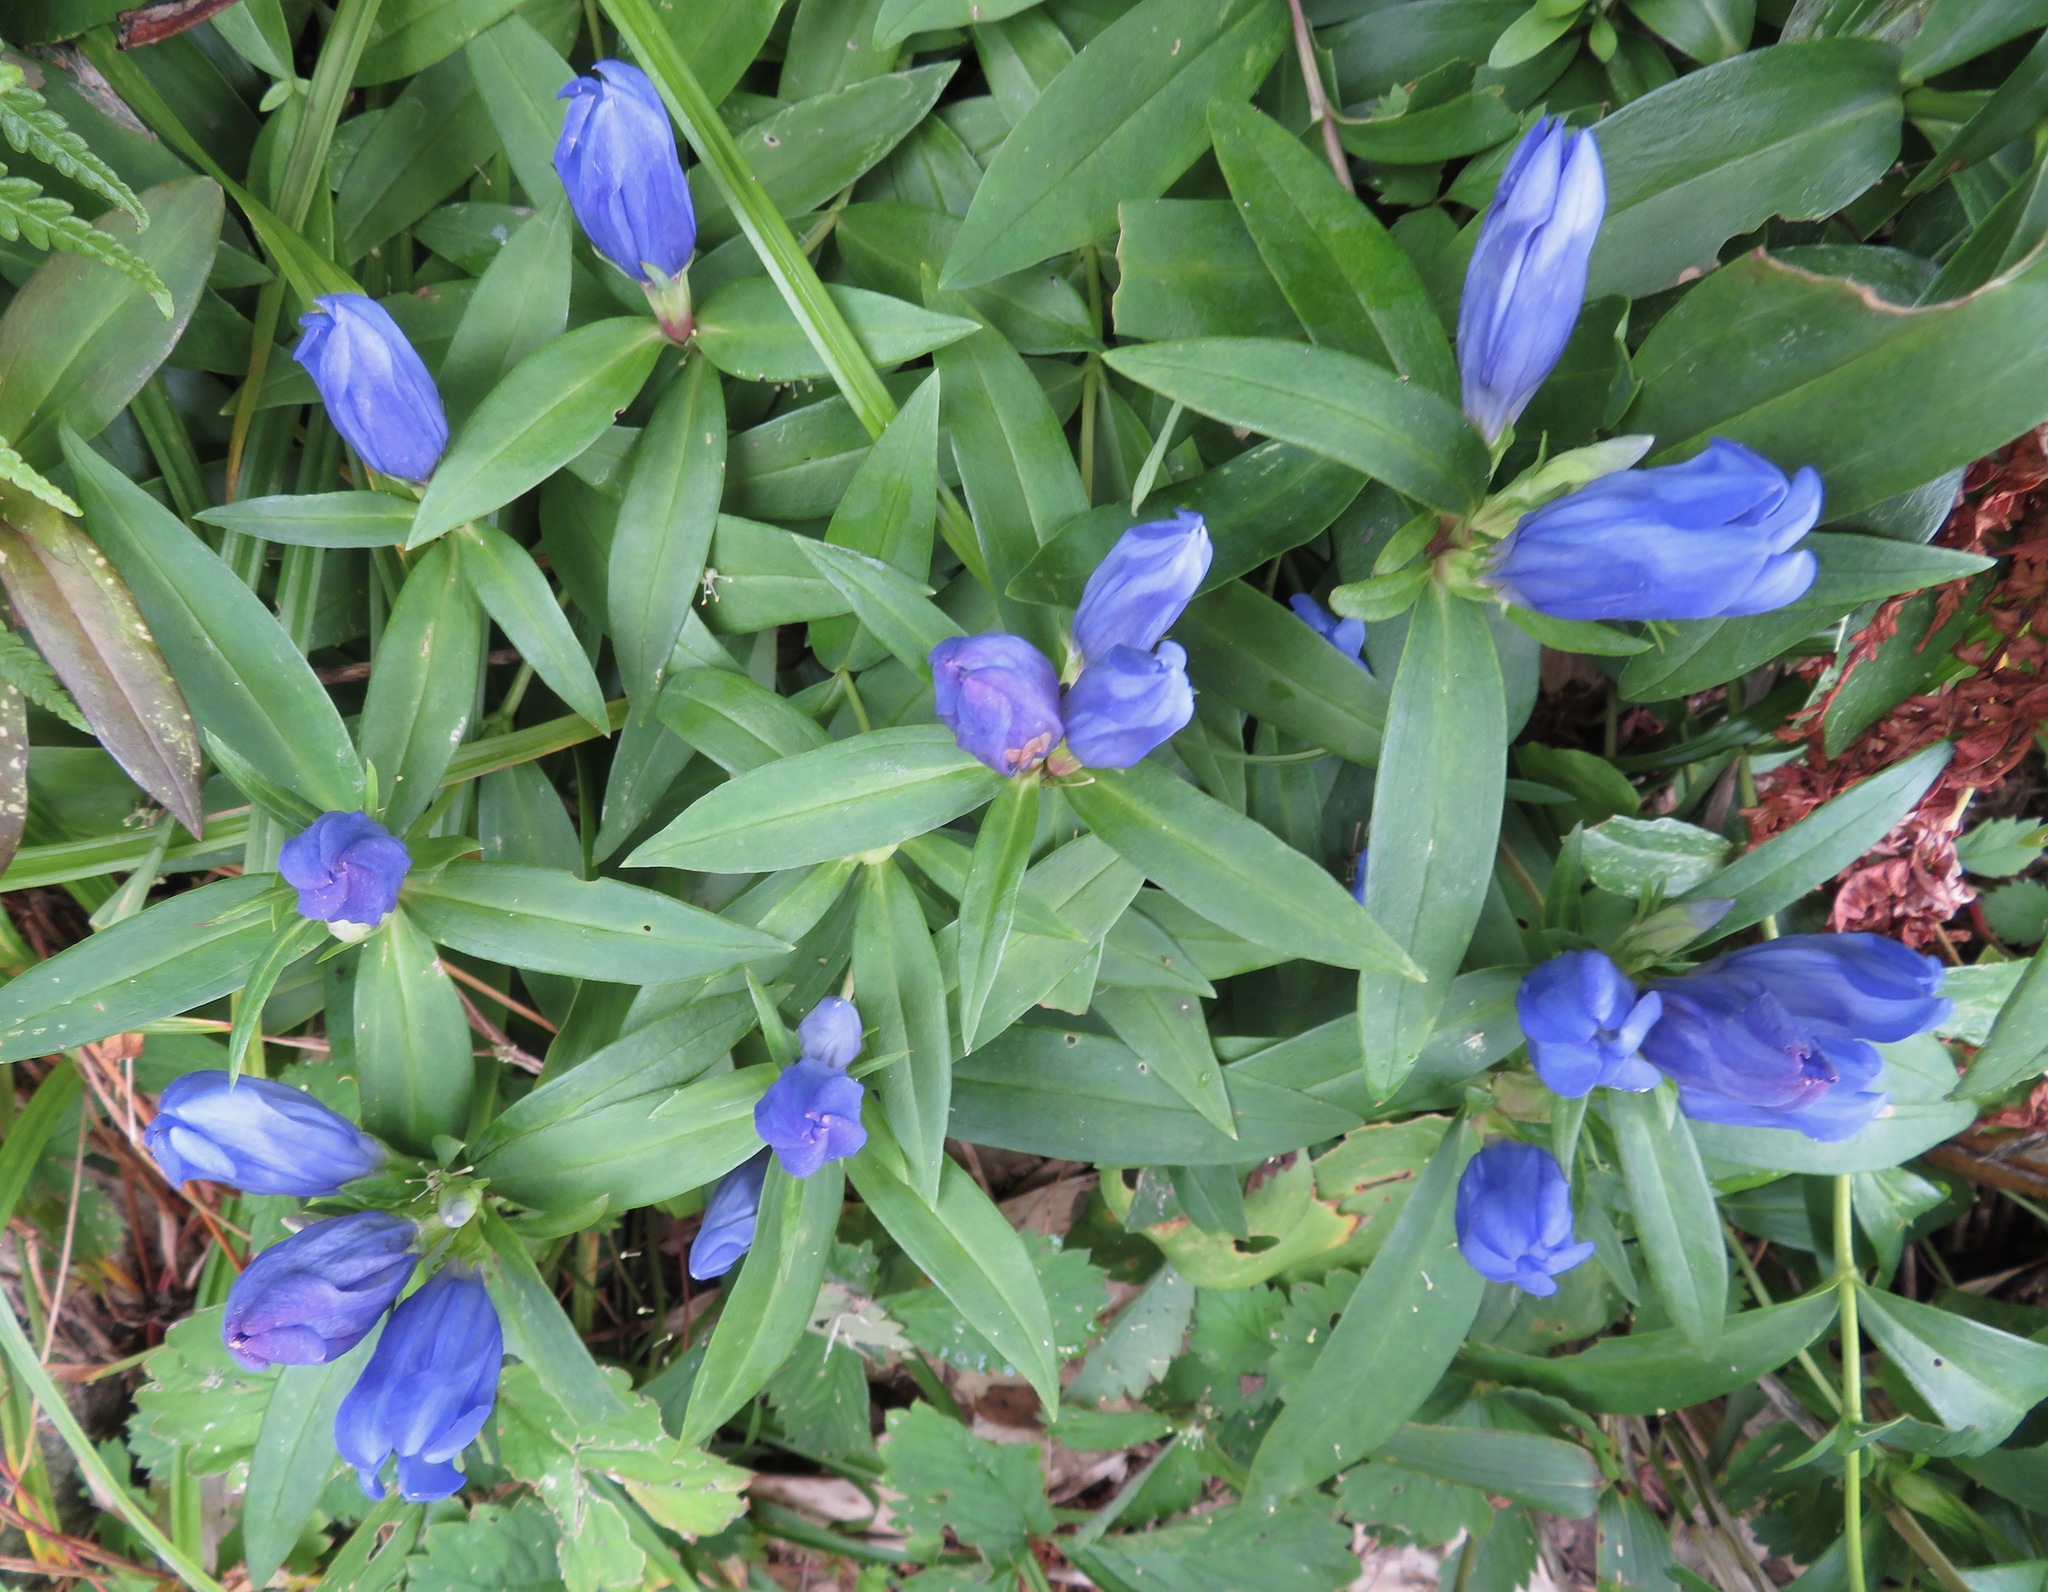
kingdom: Plantae
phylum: Tracheophyta
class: Magnoliopsida
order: Gentianales
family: Gentianaceae
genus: Gentiana
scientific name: Gentiana makinoi
